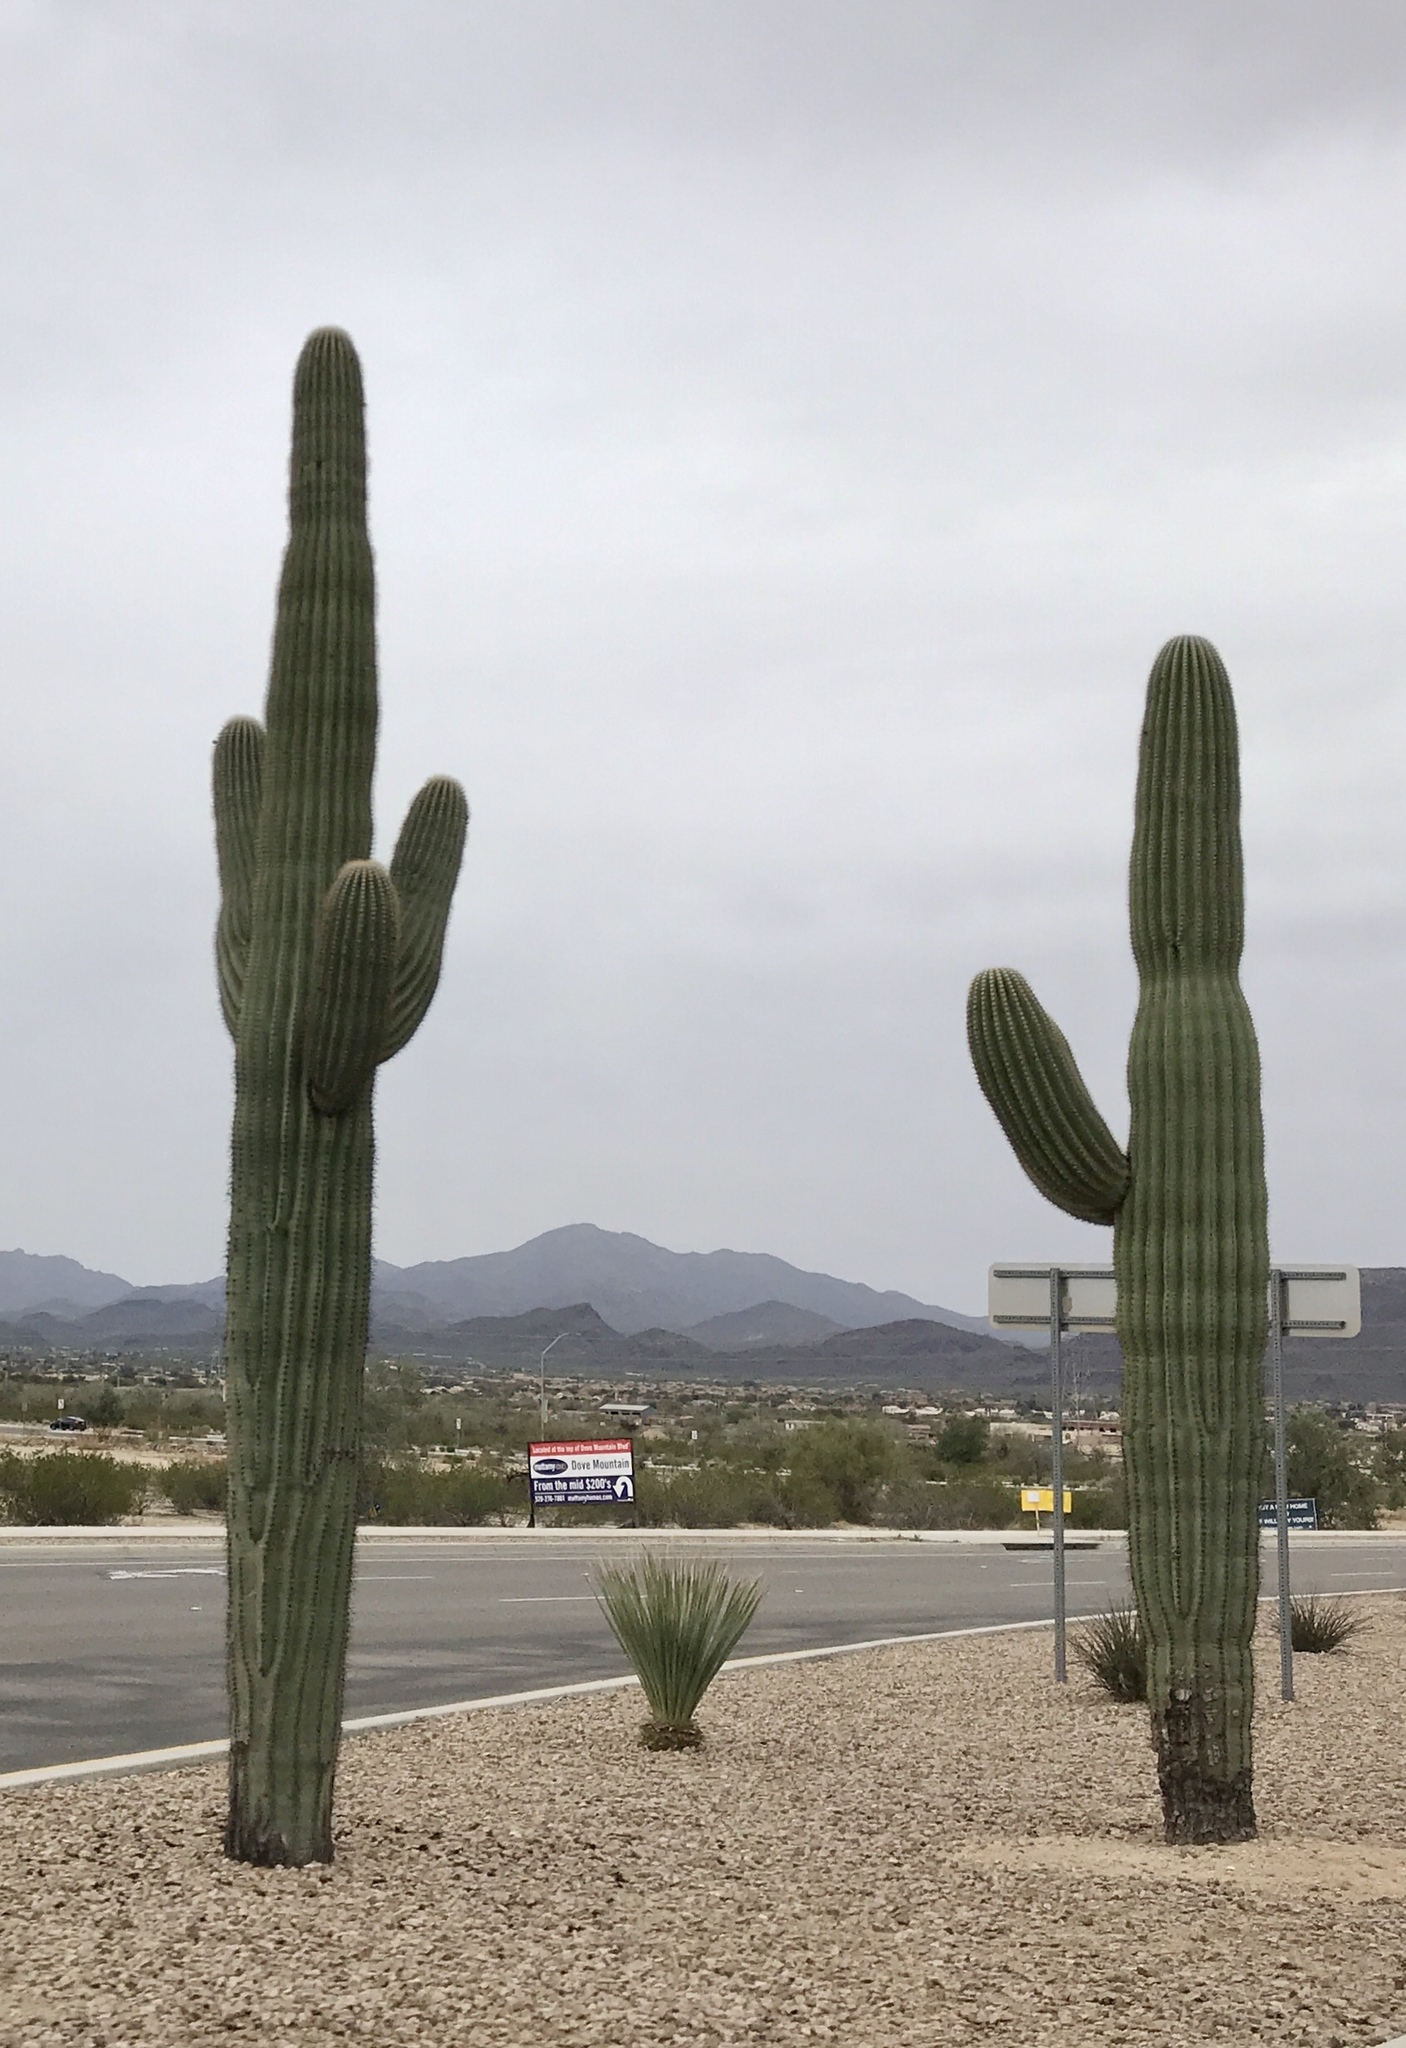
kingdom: Plantae
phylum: Tracheophyta
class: Magnoliopsida
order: Caryophyllales
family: Cactaceae
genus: Carnegiea
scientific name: Carnegiea gigantea
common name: Saguaro
